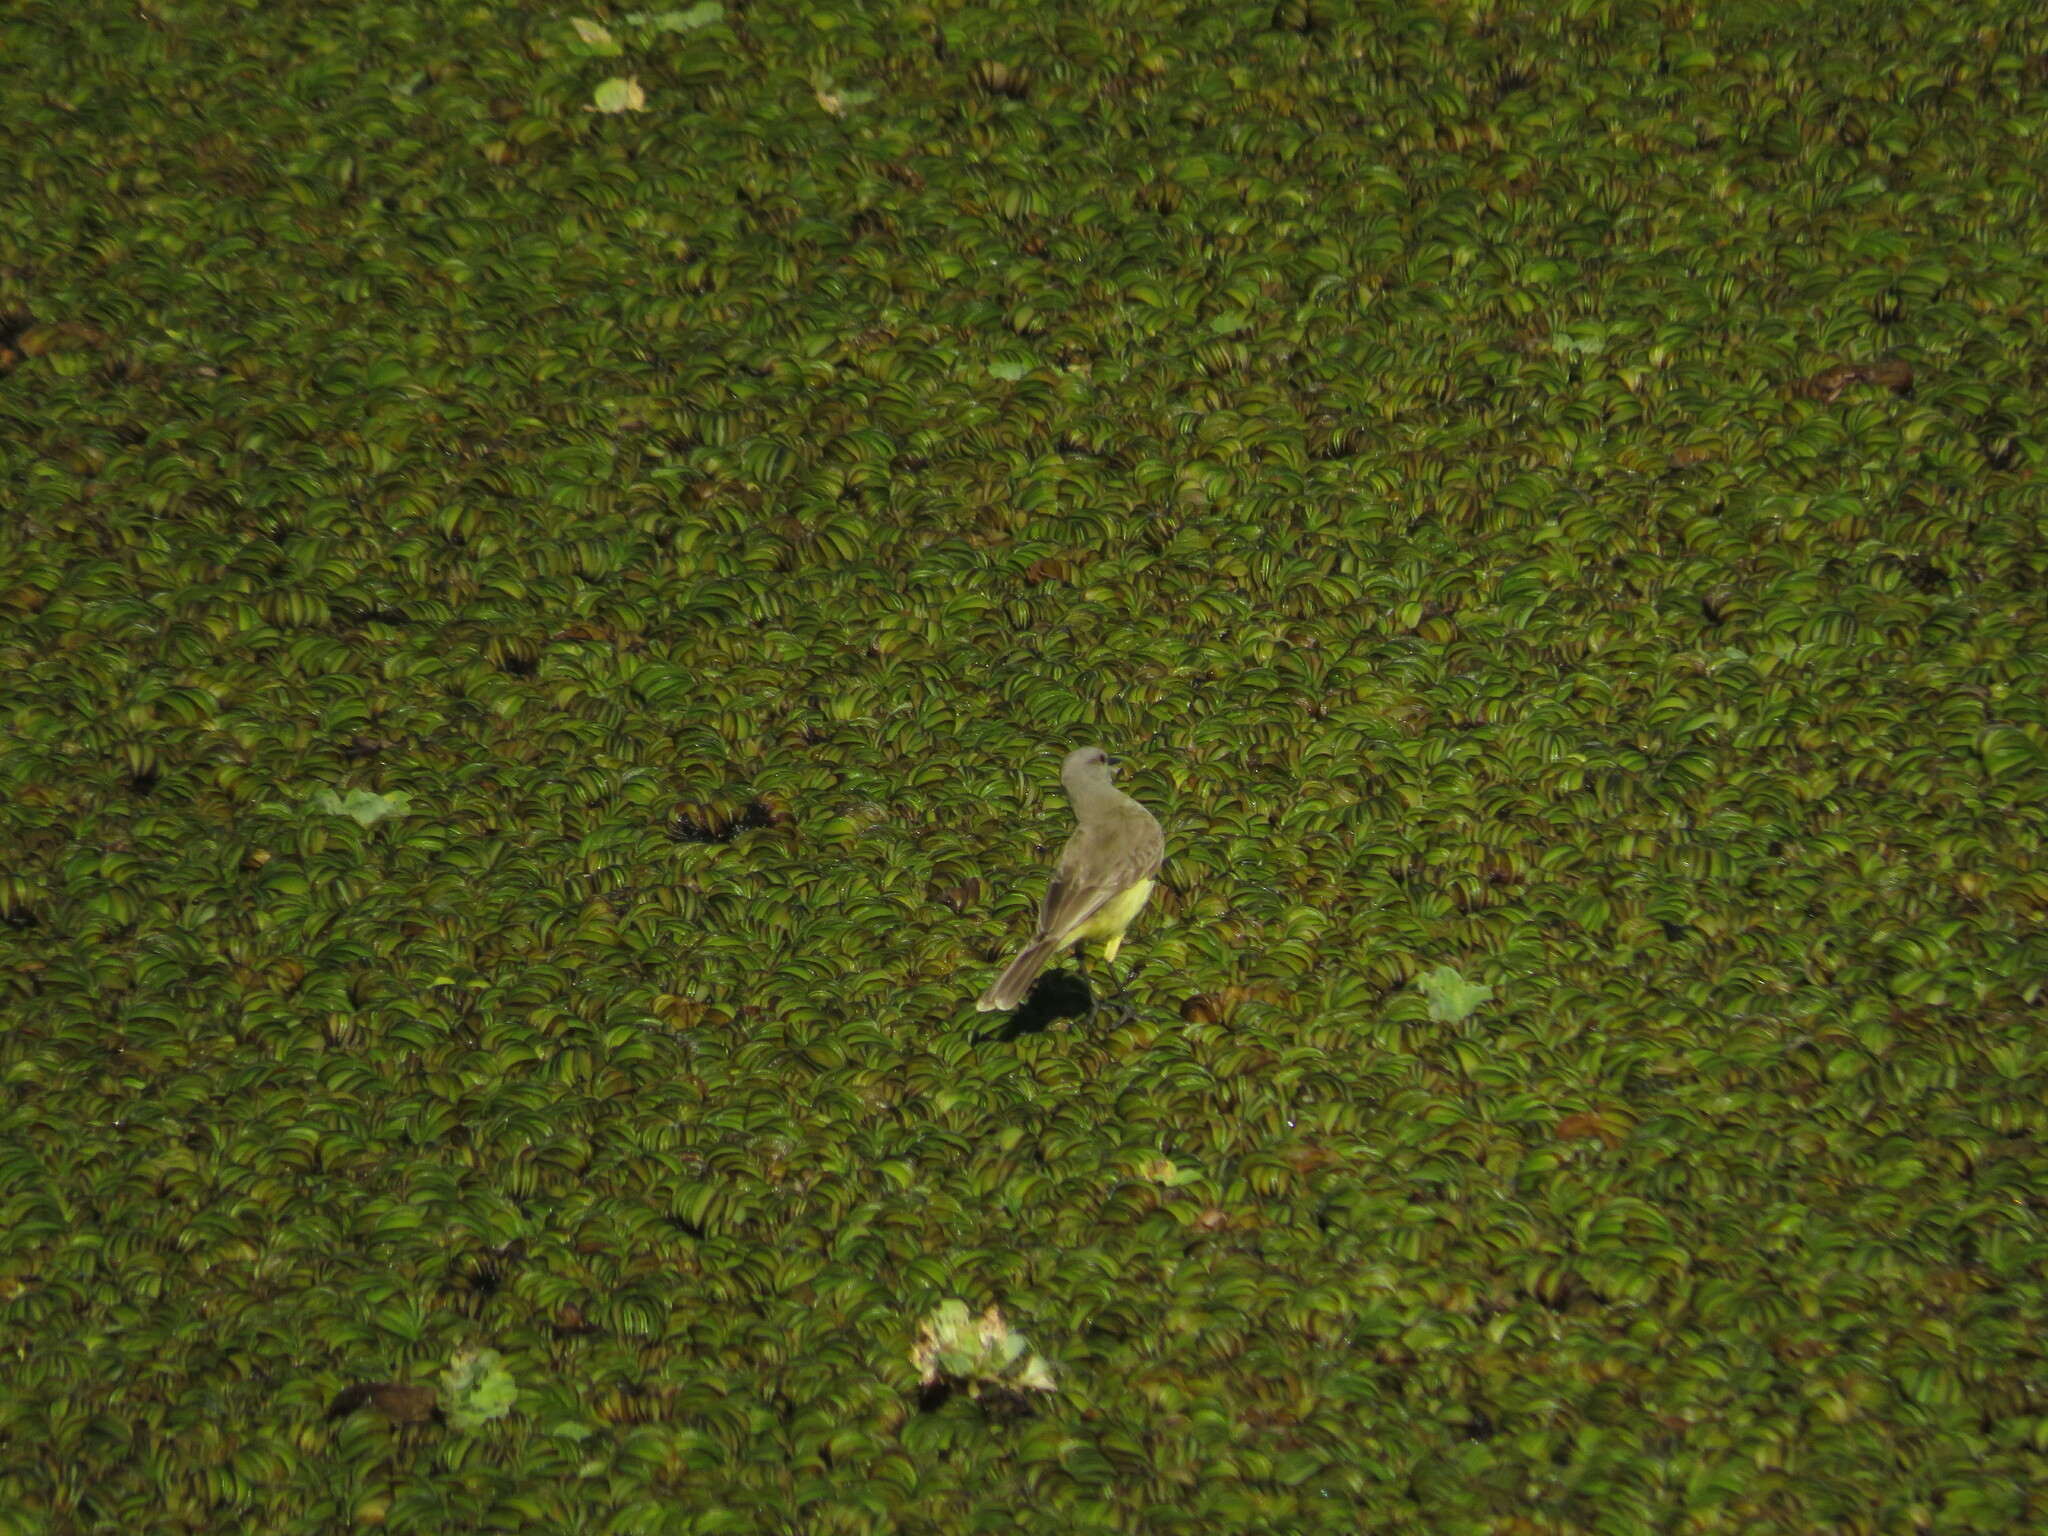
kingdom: Animalia
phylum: Chordata
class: Aves
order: Passeriformes
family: Tyrannidae
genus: Machetornis
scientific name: Machetornis rixosa
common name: Cattle tyrant
